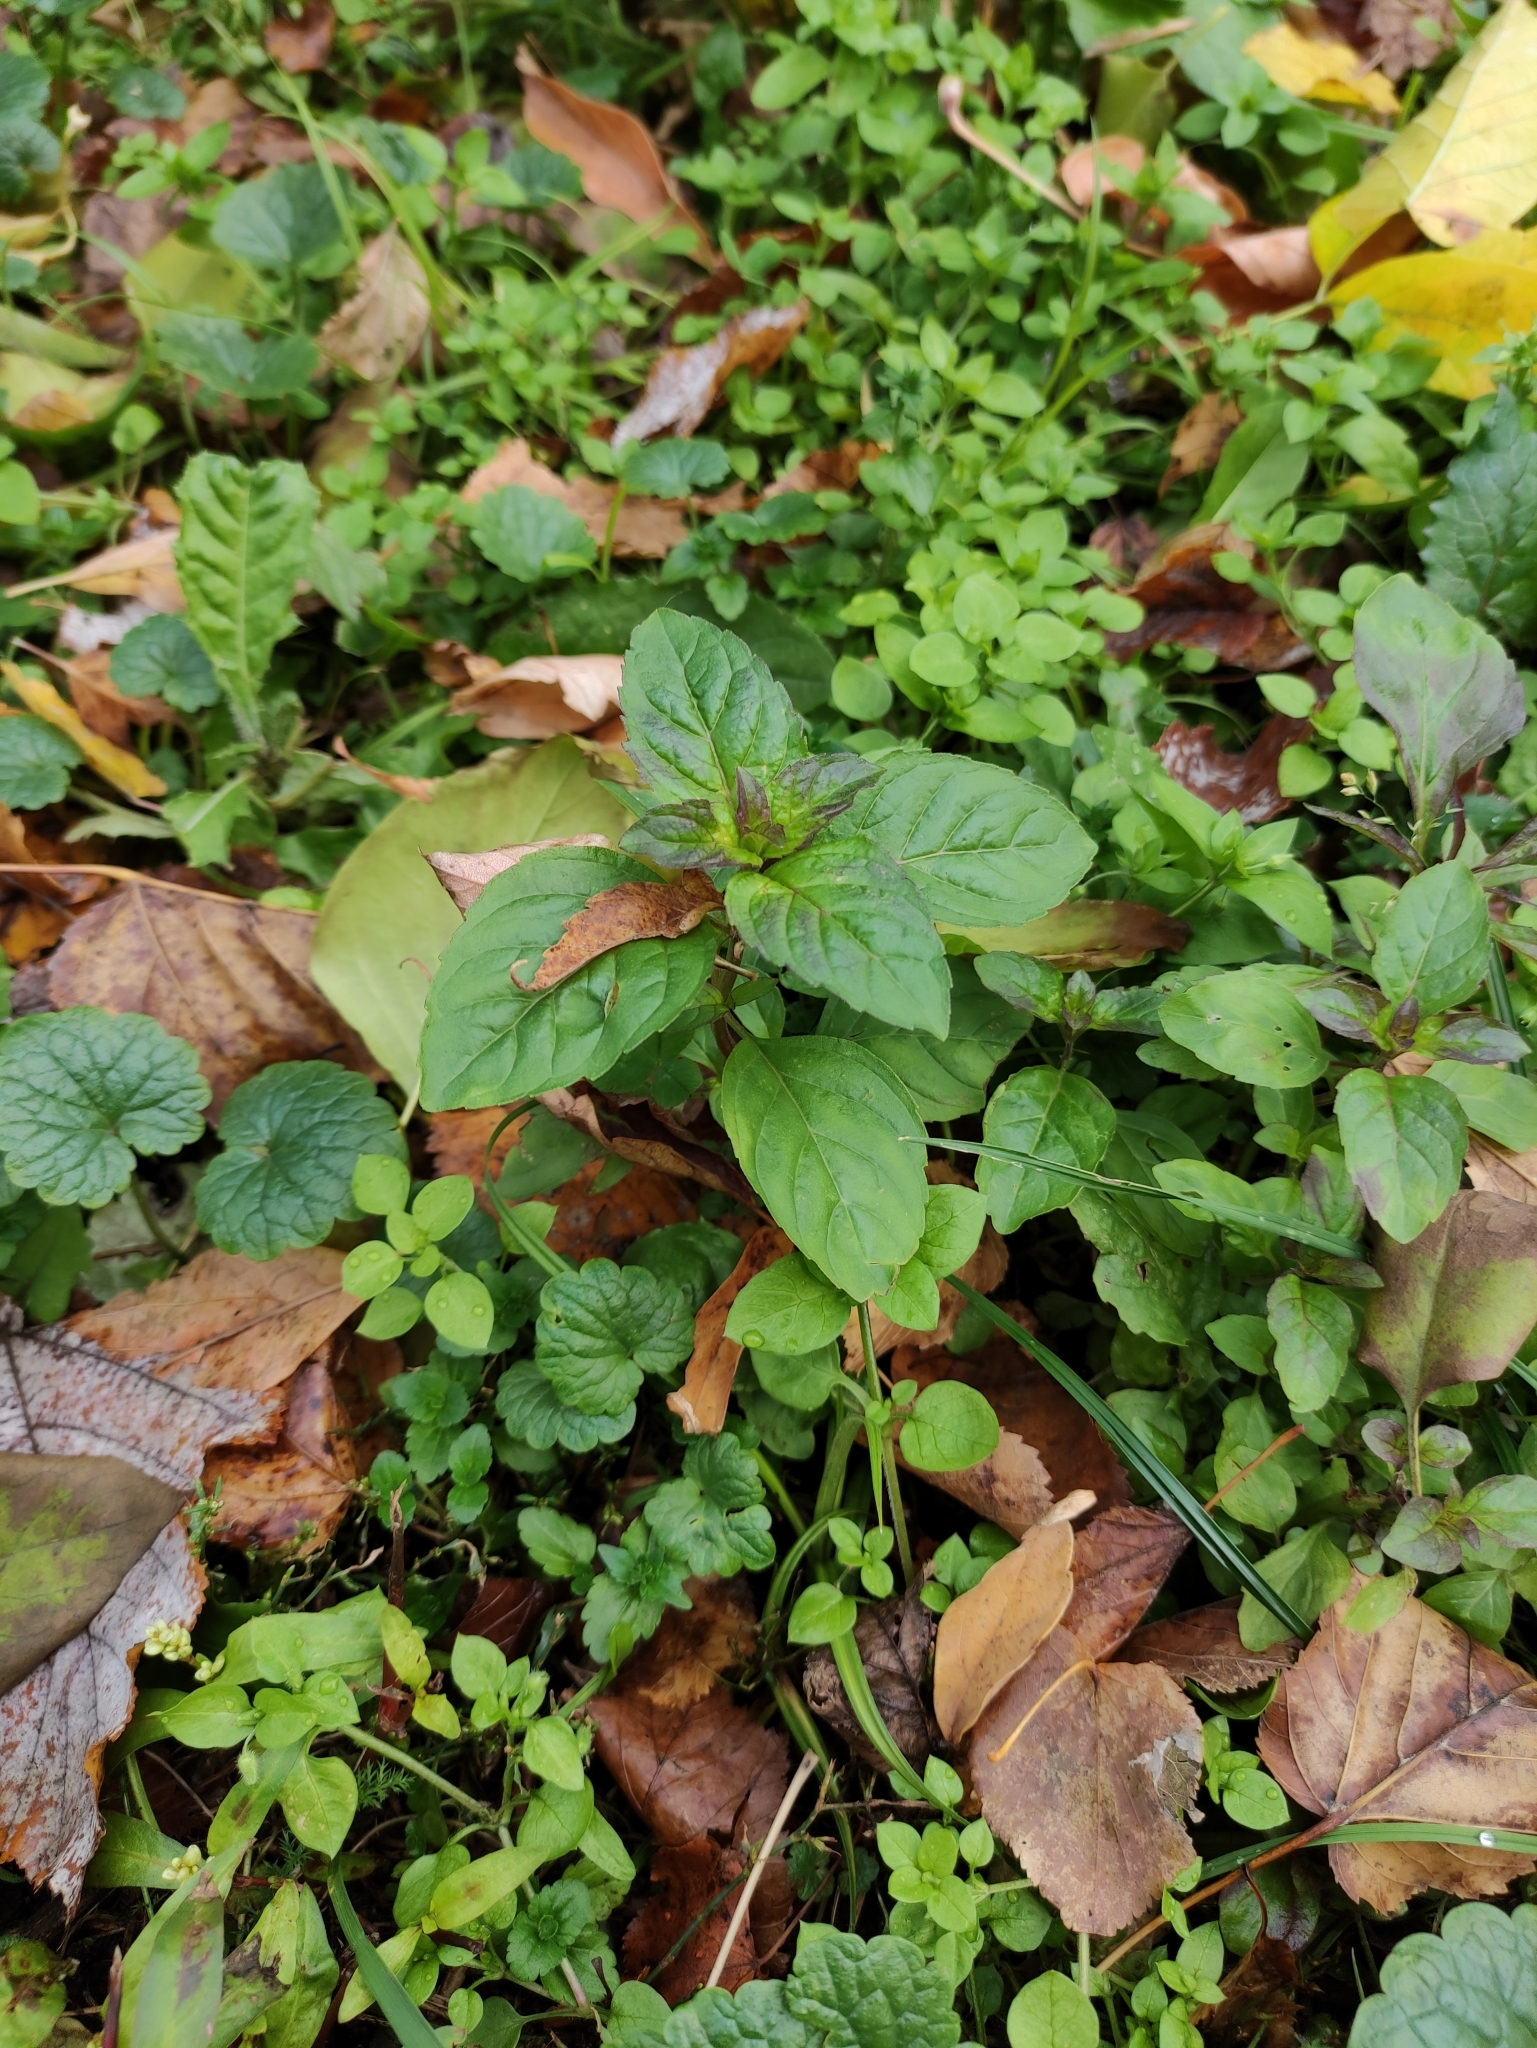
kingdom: Plantae
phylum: Tracheophyta
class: Magnoliopsida
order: Lamiales
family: Lamiaceae
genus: Mentha
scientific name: Mentha arvensis
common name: Corn mint
